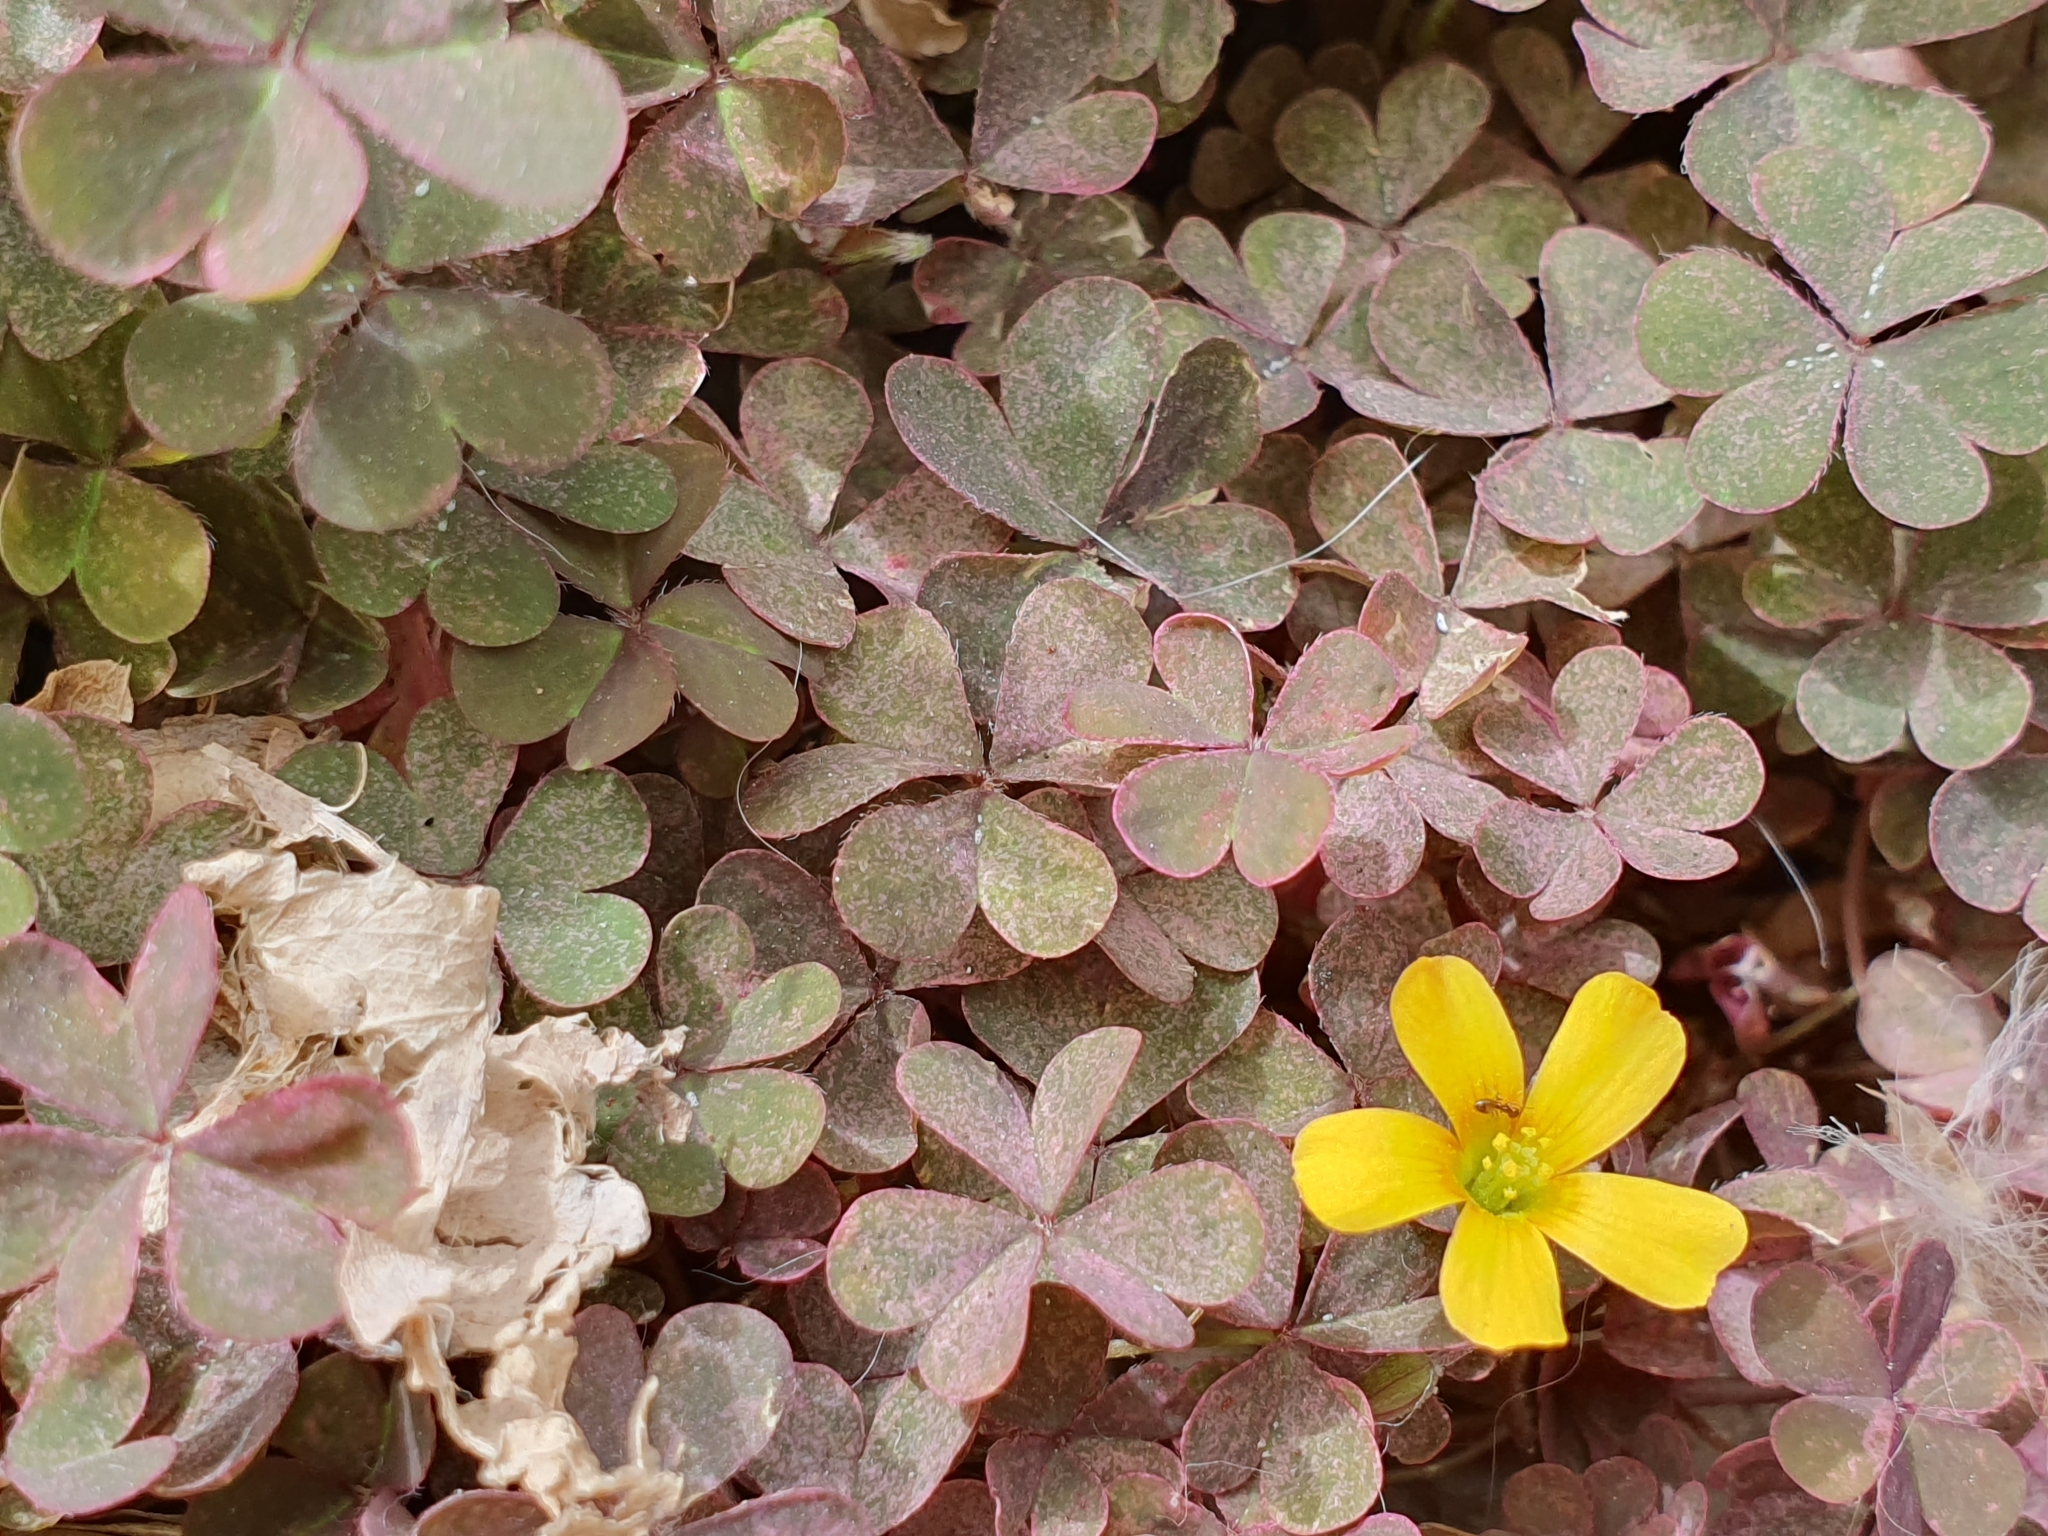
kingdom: Plantae
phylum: Tracheophyta
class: Magnoliopsida
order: Oxalidales
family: Oxalidaceae
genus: Oxalis
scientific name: Oxalis corniculata
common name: Procumbent yellow-sorrel
